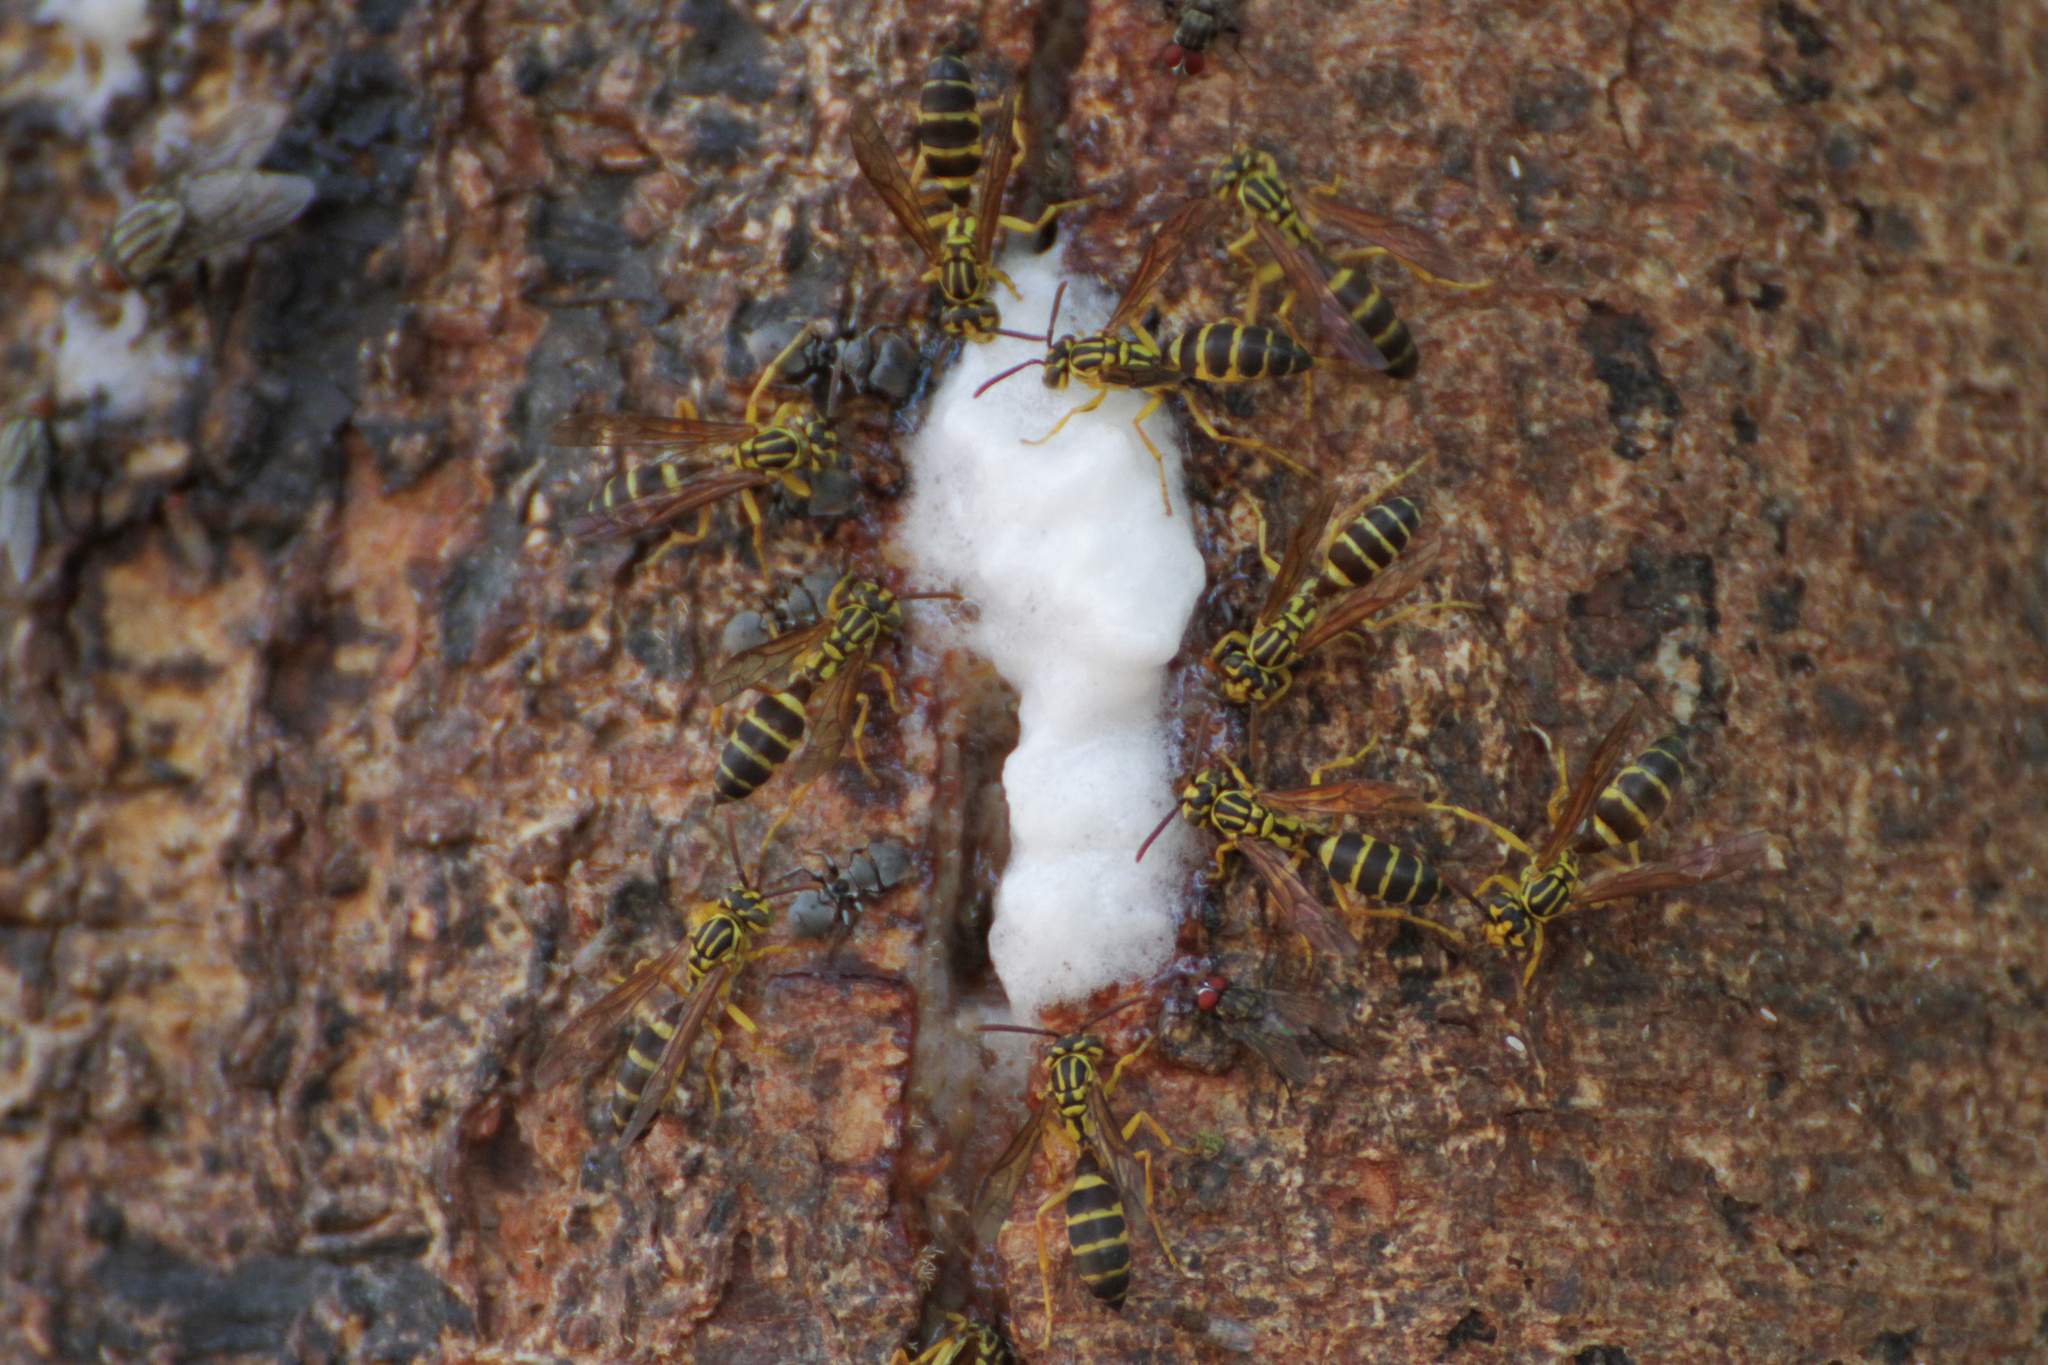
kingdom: Animalia
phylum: Arthropoda
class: Insecta
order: Hymenoptera
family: Vespidae
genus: Agelaia
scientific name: Agelaia yepocapa
